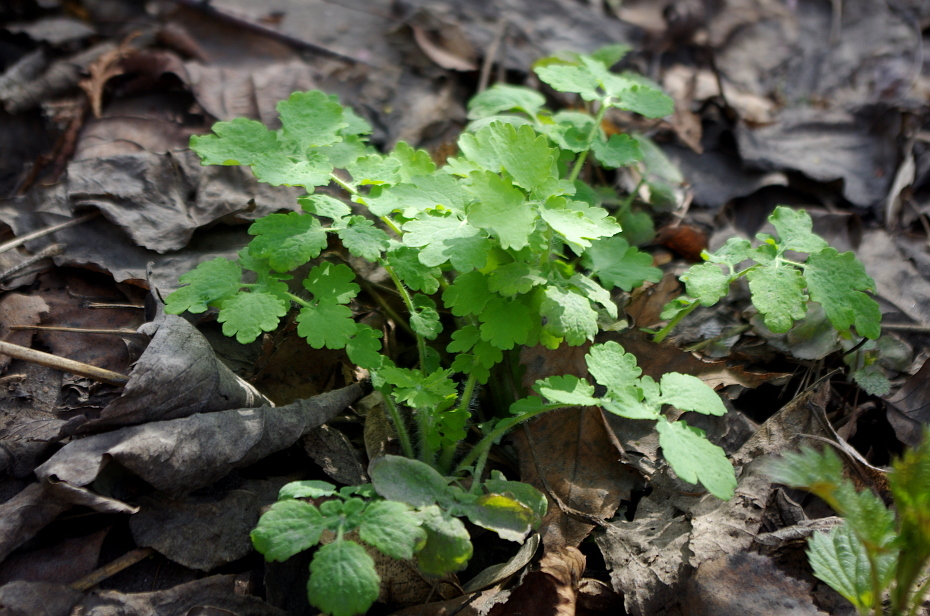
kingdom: Plantae
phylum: Tracheophyta
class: Magnoliopsida
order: Ranunculales
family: Papaveraceae
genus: Chelidonium
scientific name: Chelidonium majus
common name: Greater celandine
